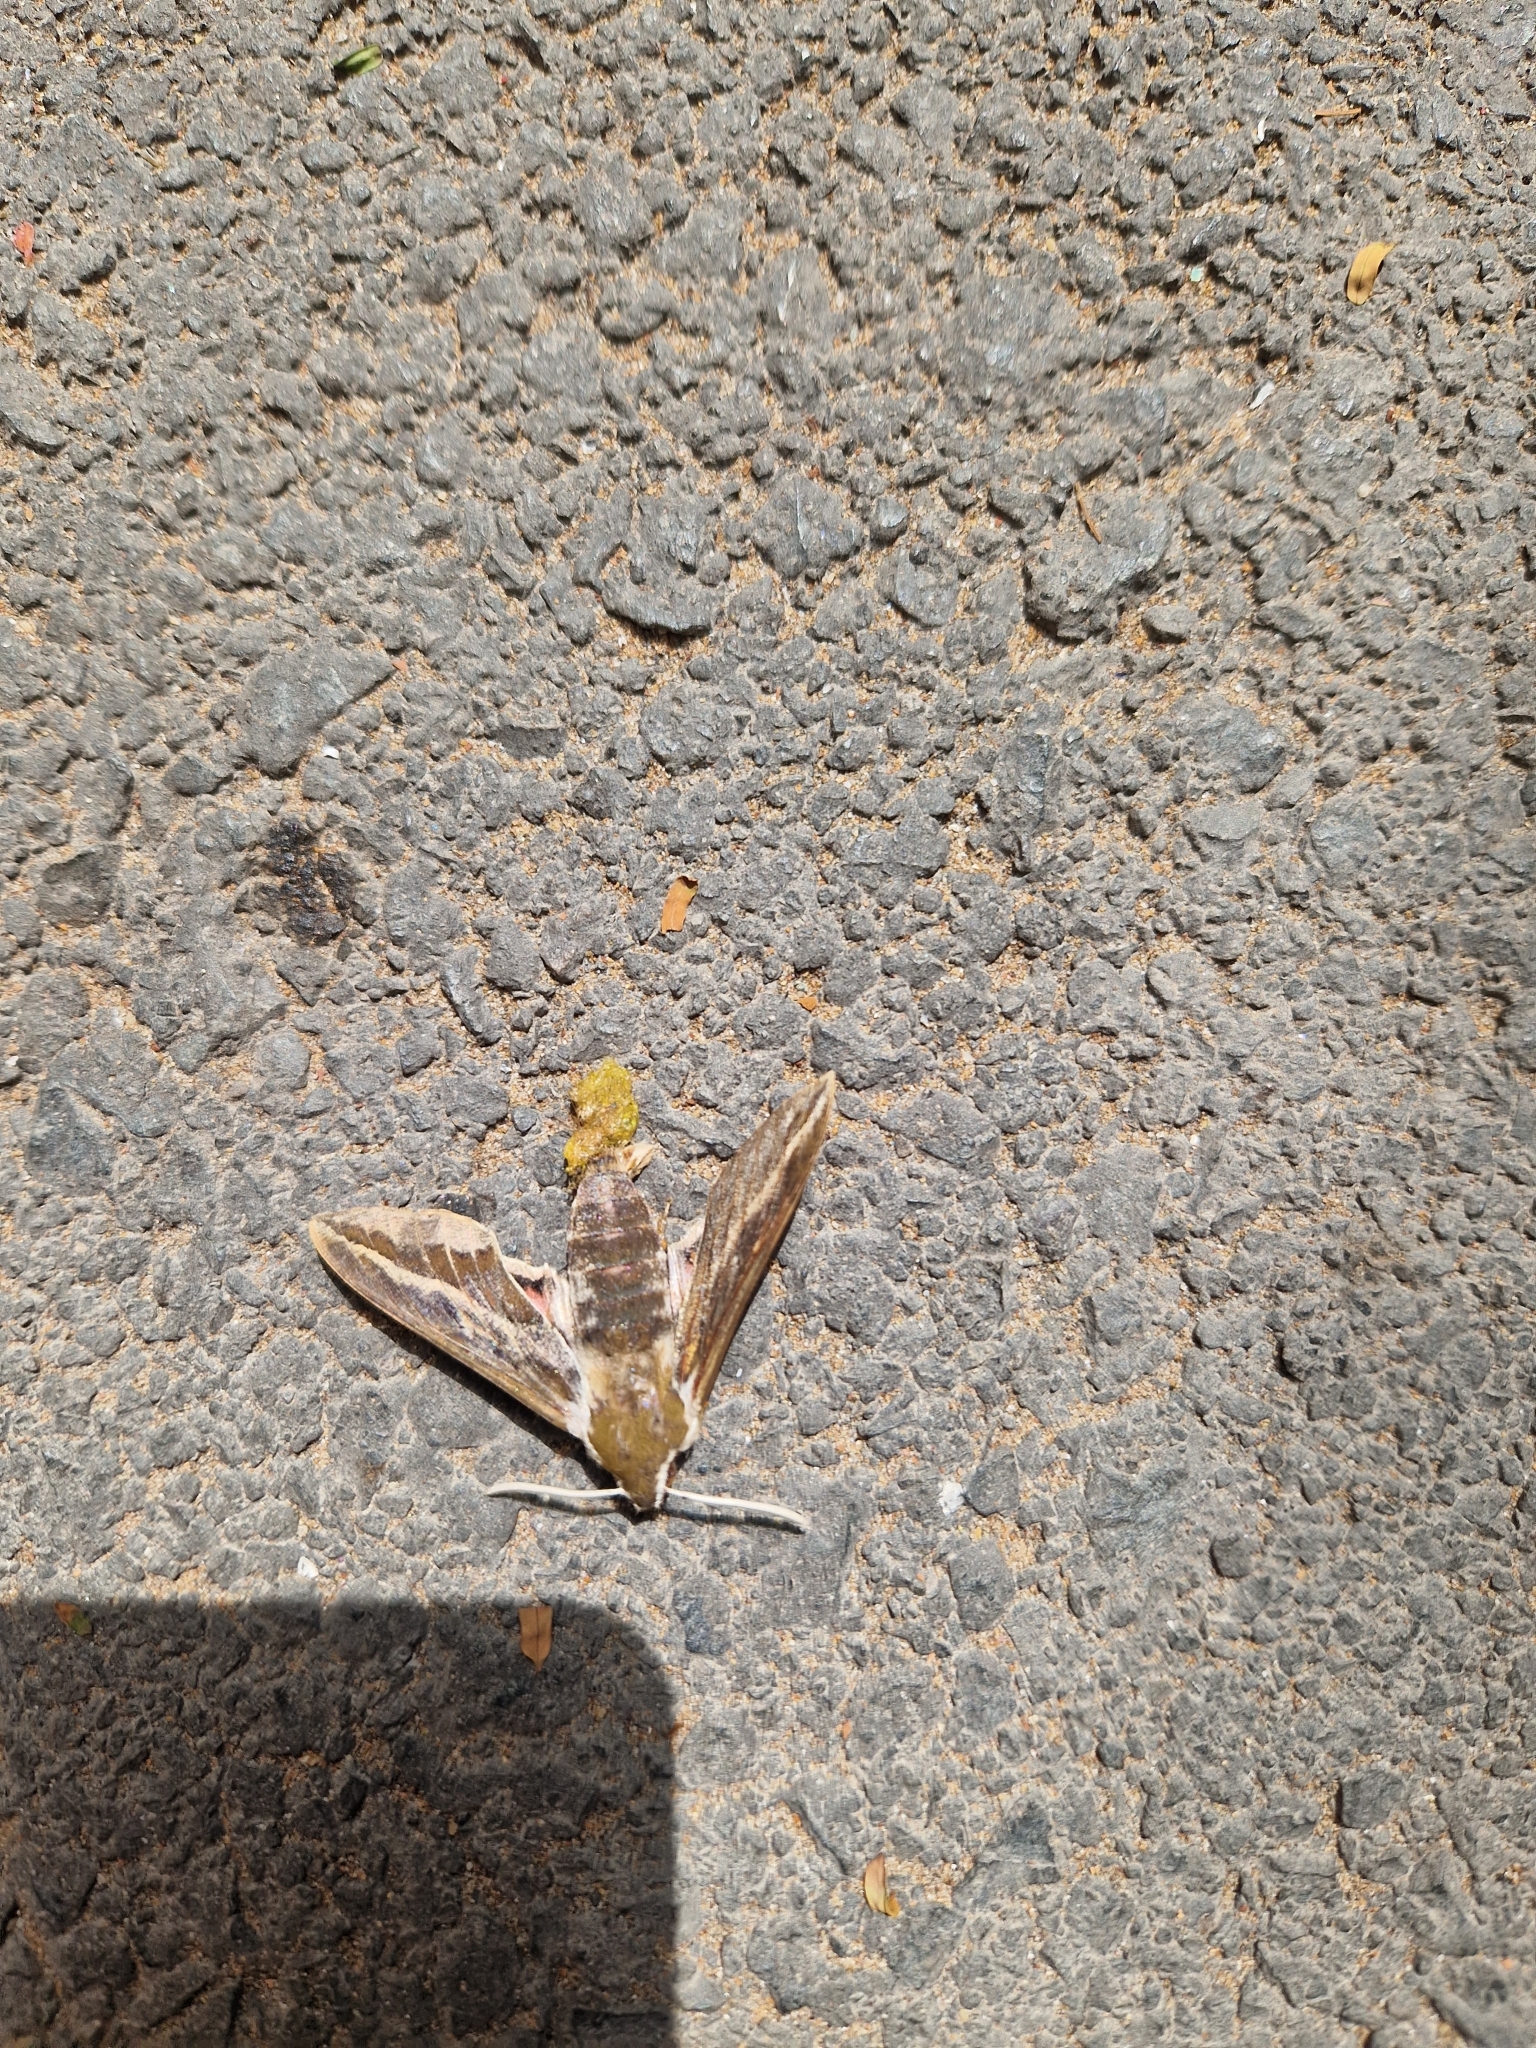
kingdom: Animalia
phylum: Arthropoda
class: Insecta
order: Lepidoptera
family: Sphingidae
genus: Hyles
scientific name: Hyles tithymali
